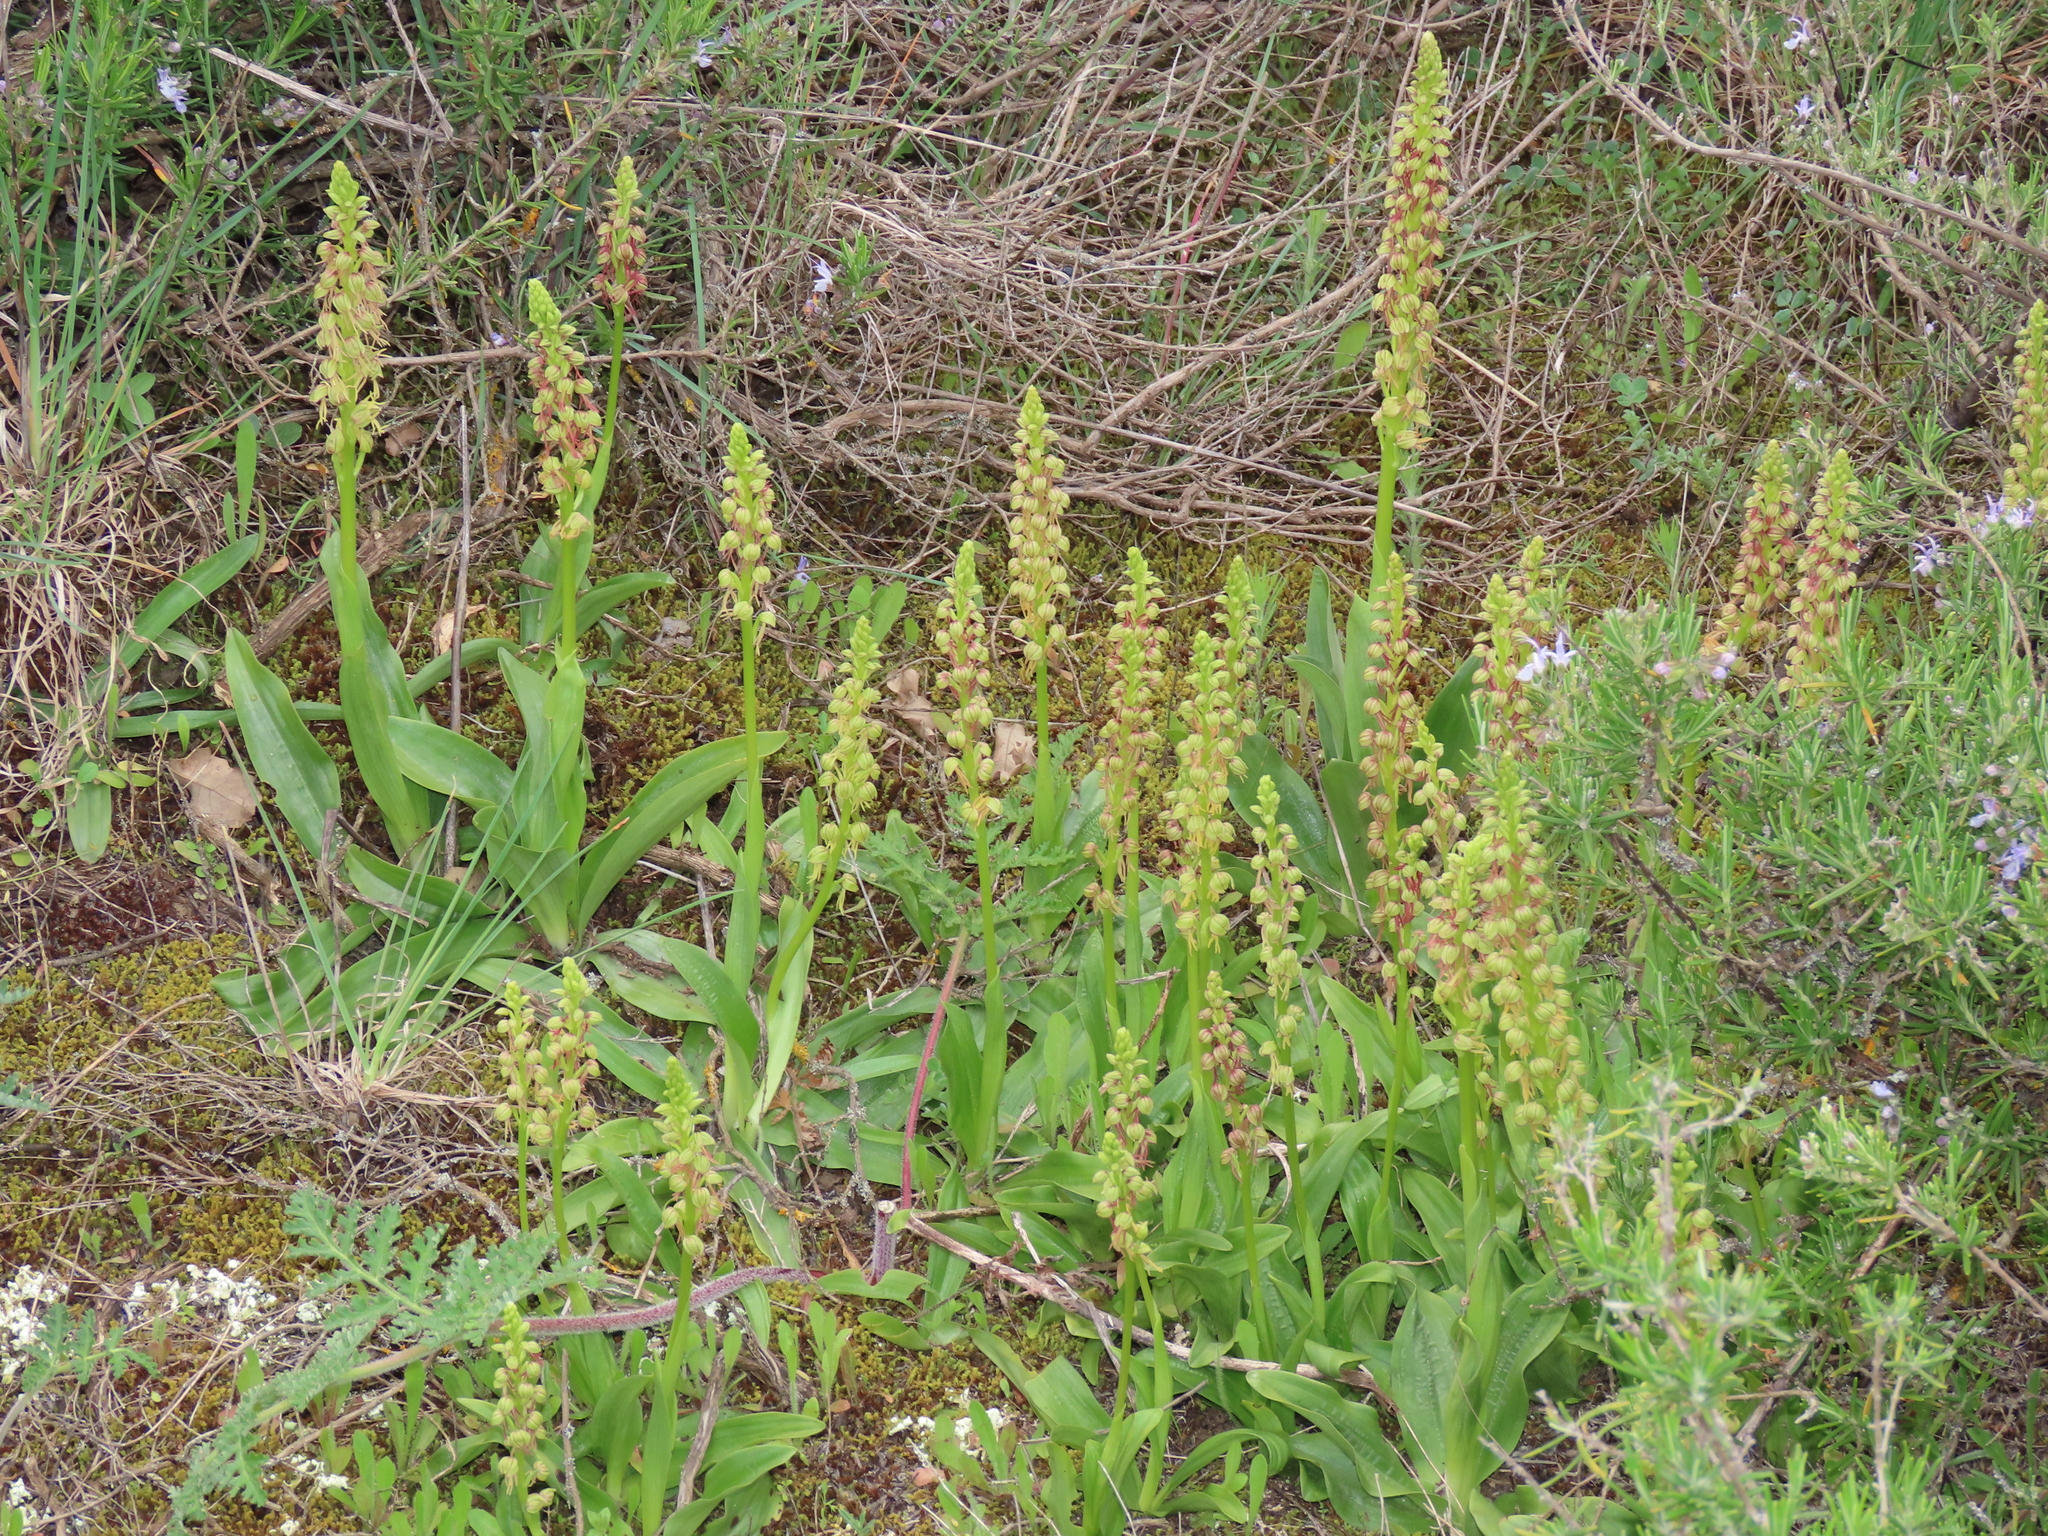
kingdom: Plantae
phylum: Tracheophyta
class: Liliopsida
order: Asparagales
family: Orchidaceae
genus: Orchis
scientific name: Orchis anthropophora
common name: Man orchid
